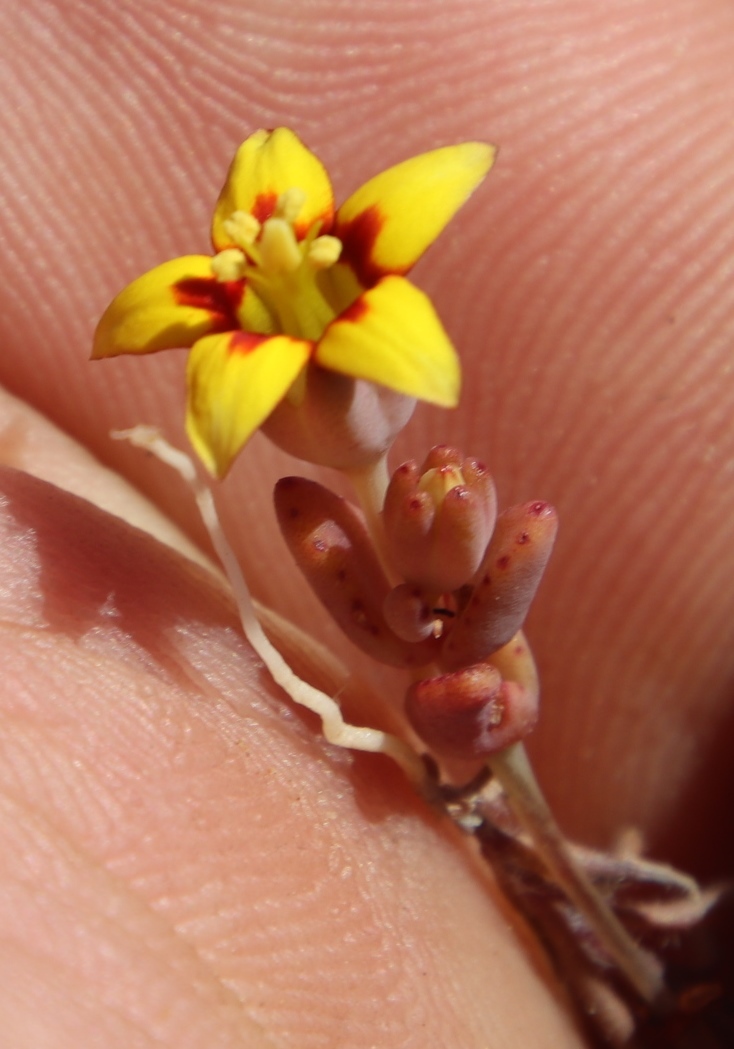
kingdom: Plantae
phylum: Tracheophyta
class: Magnoliopsida
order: Saxifragales
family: Crassulaceae
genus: Crassula
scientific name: Crassula dichotoma
